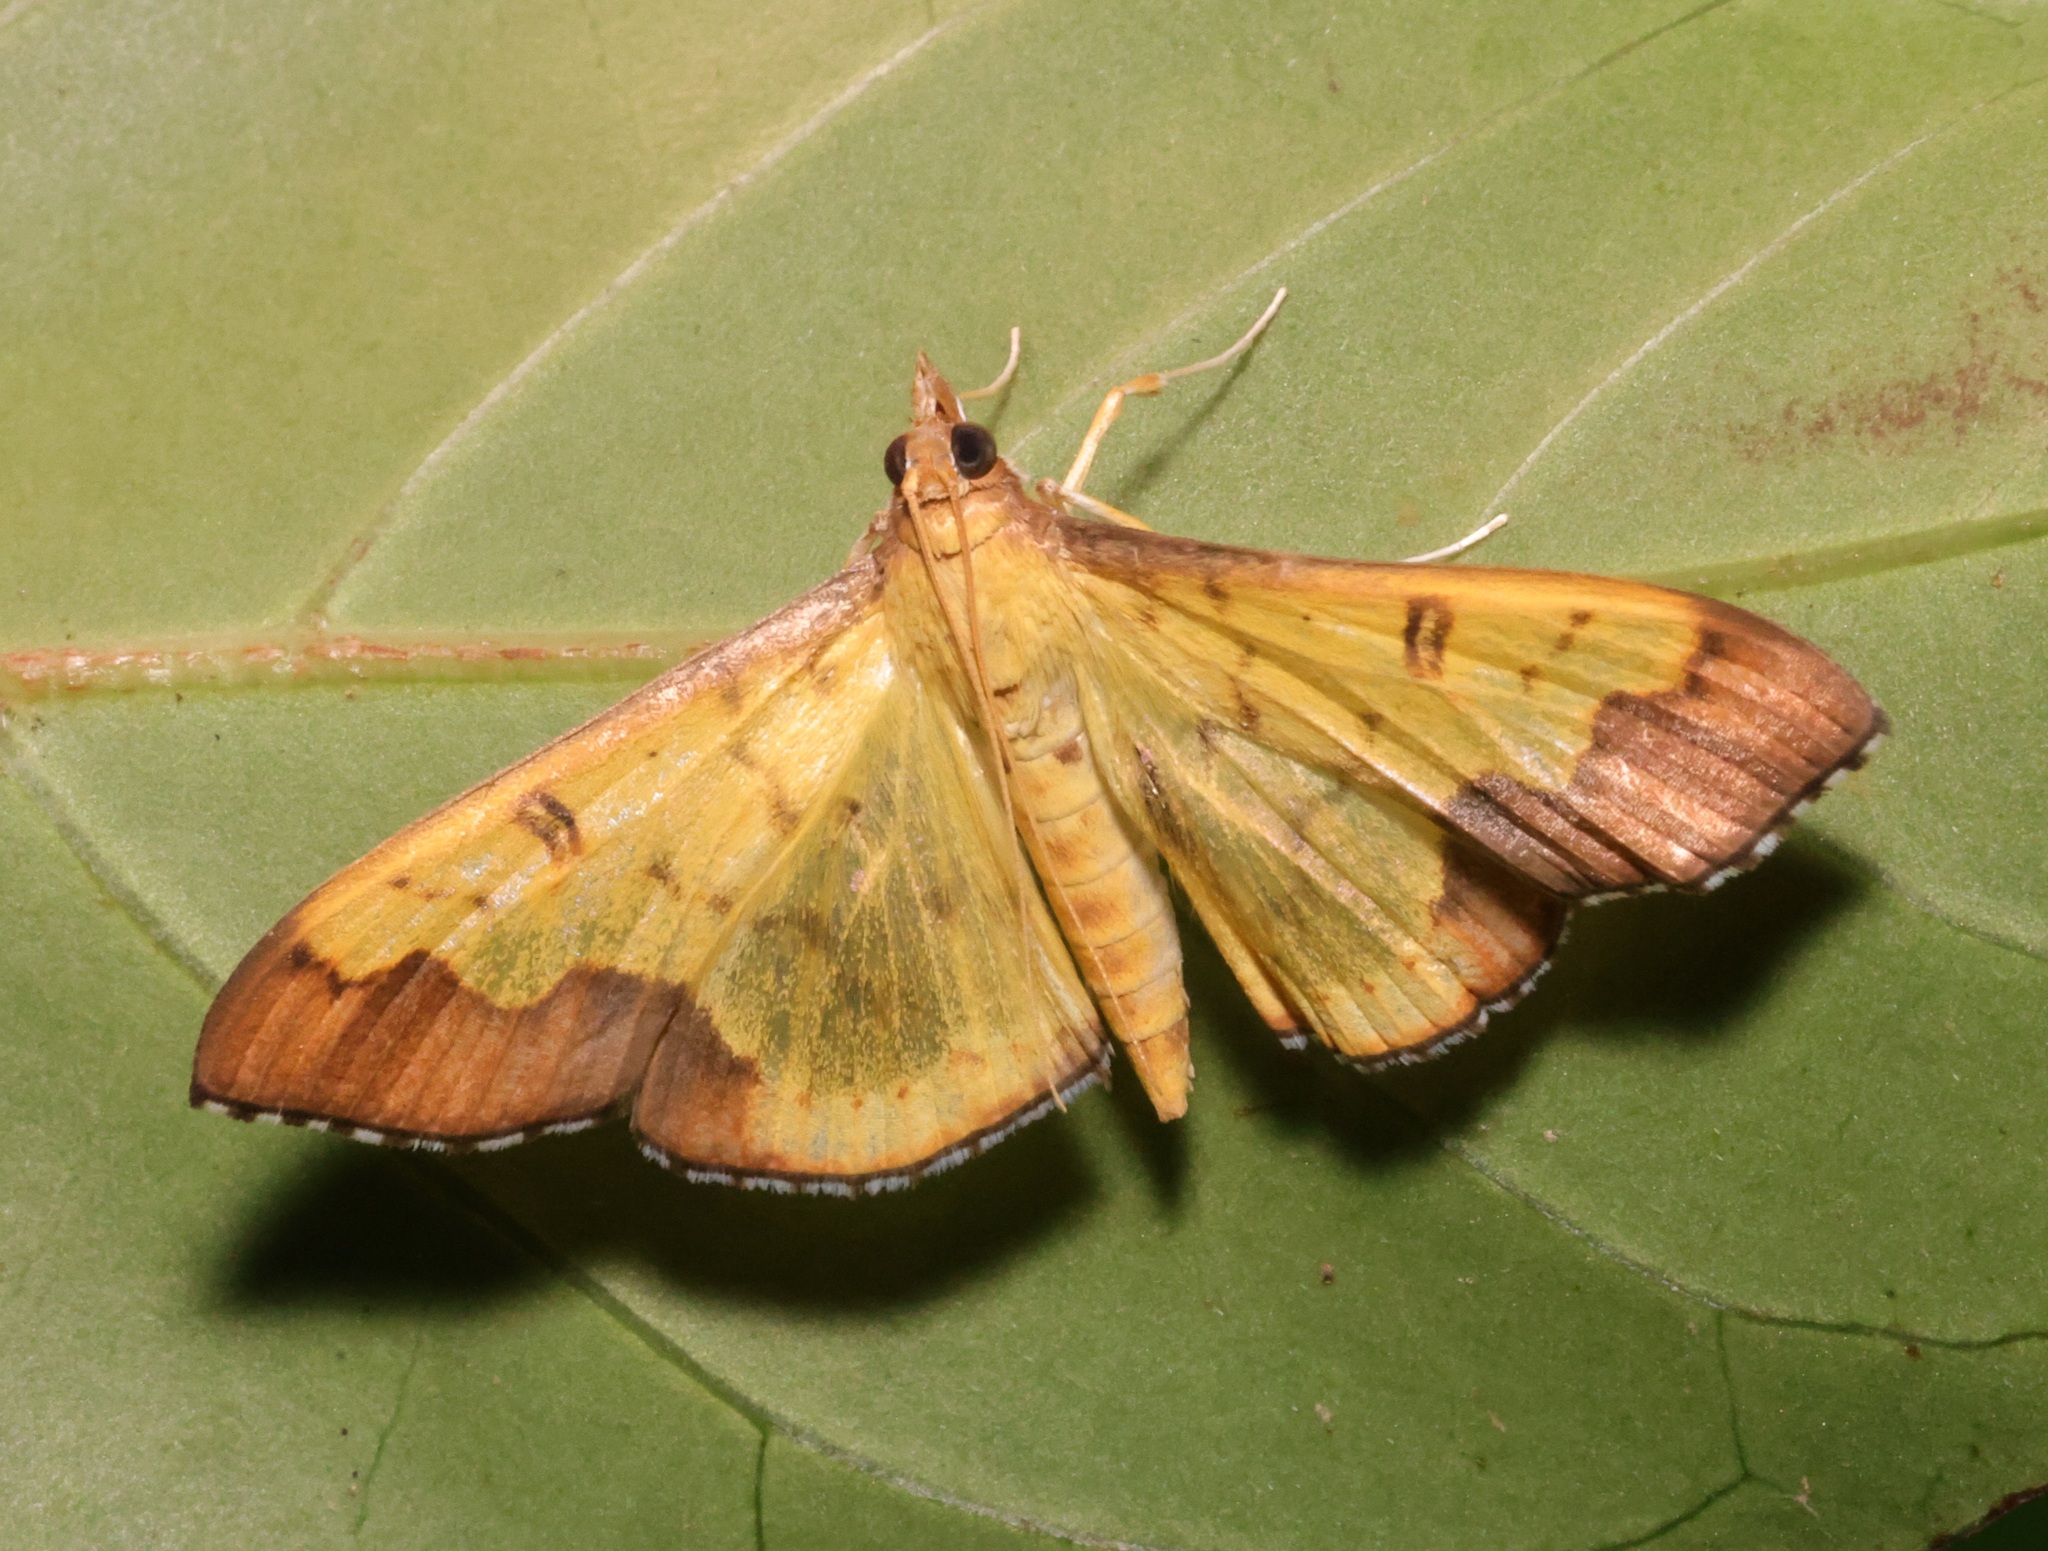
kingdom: Animalia
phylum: Arthropoda
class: Insecta
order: Lepidoptera
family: Crambidae
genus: Meroctena
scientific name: Meroctena tullalis
